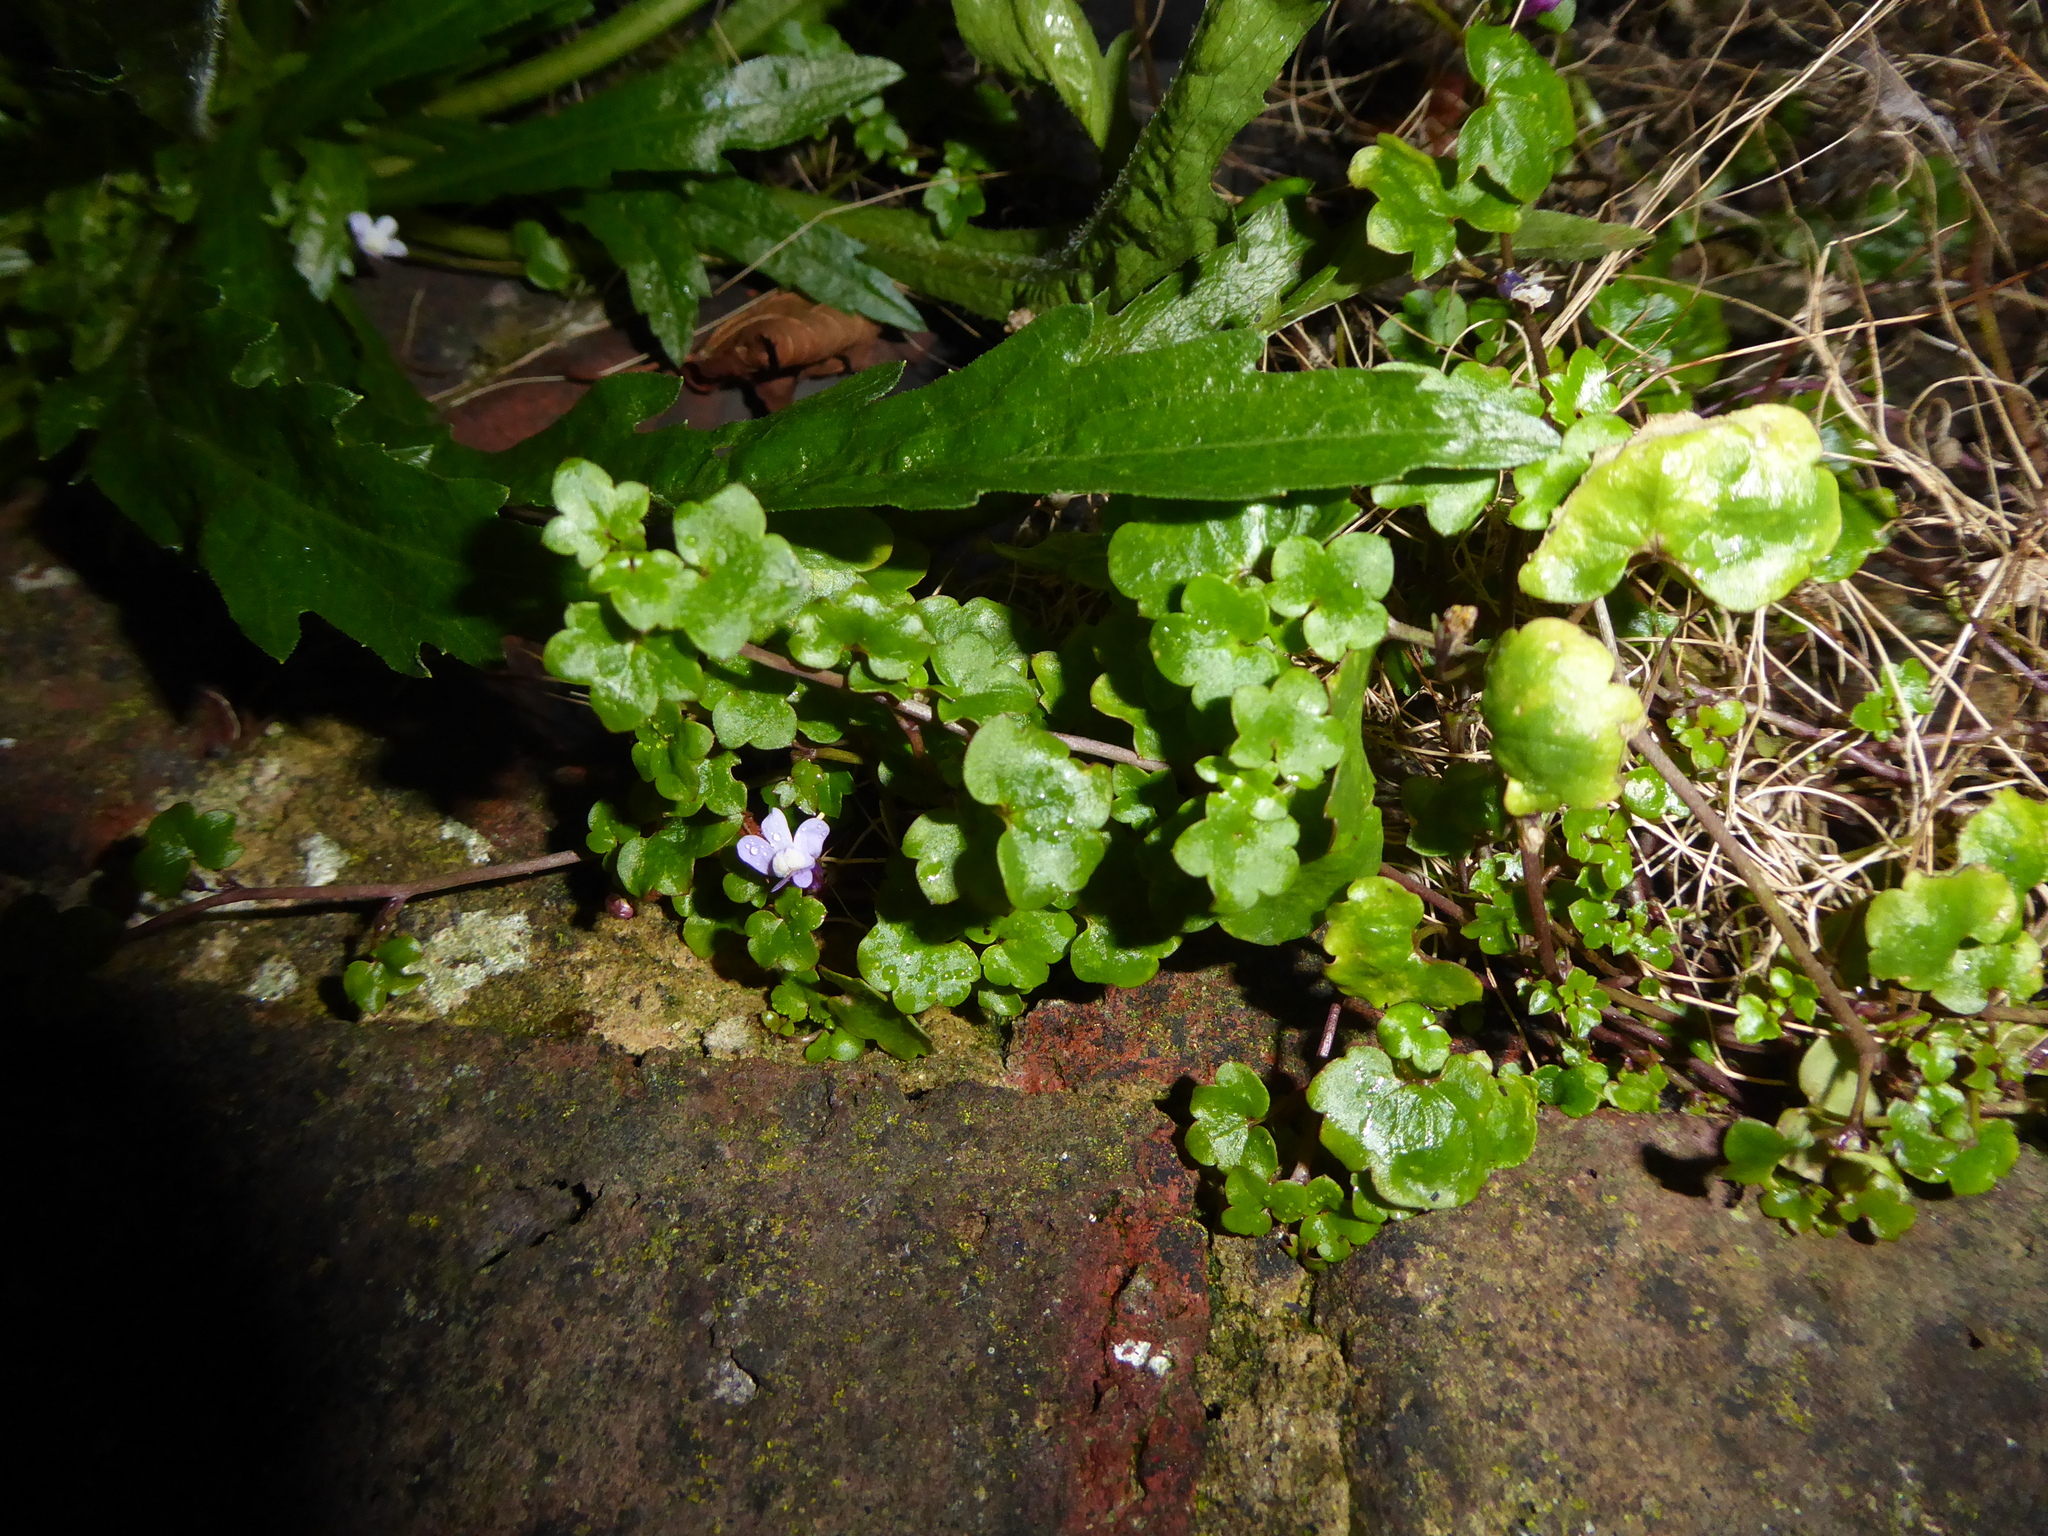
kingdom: Plantae
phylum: Tracheophyta
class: Magnoliopsida
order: Lamiales
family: Plantaginaceae
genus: Cymbalaria
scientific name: Cymbalaria muralis
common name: Ivy-leaved toadflax
